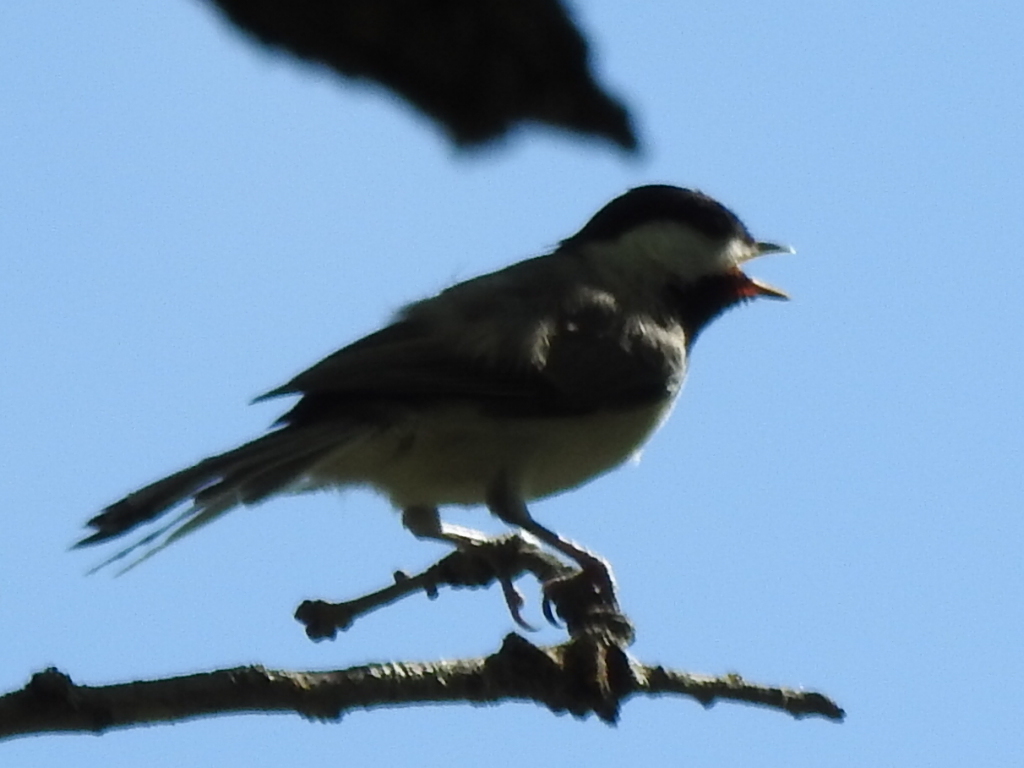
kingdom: Animalia
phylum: Chordata
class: Aves
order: Passeriformes
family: Paridae
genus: Poecile
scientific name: Poecile carolinensis
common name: Carolina chickadee
